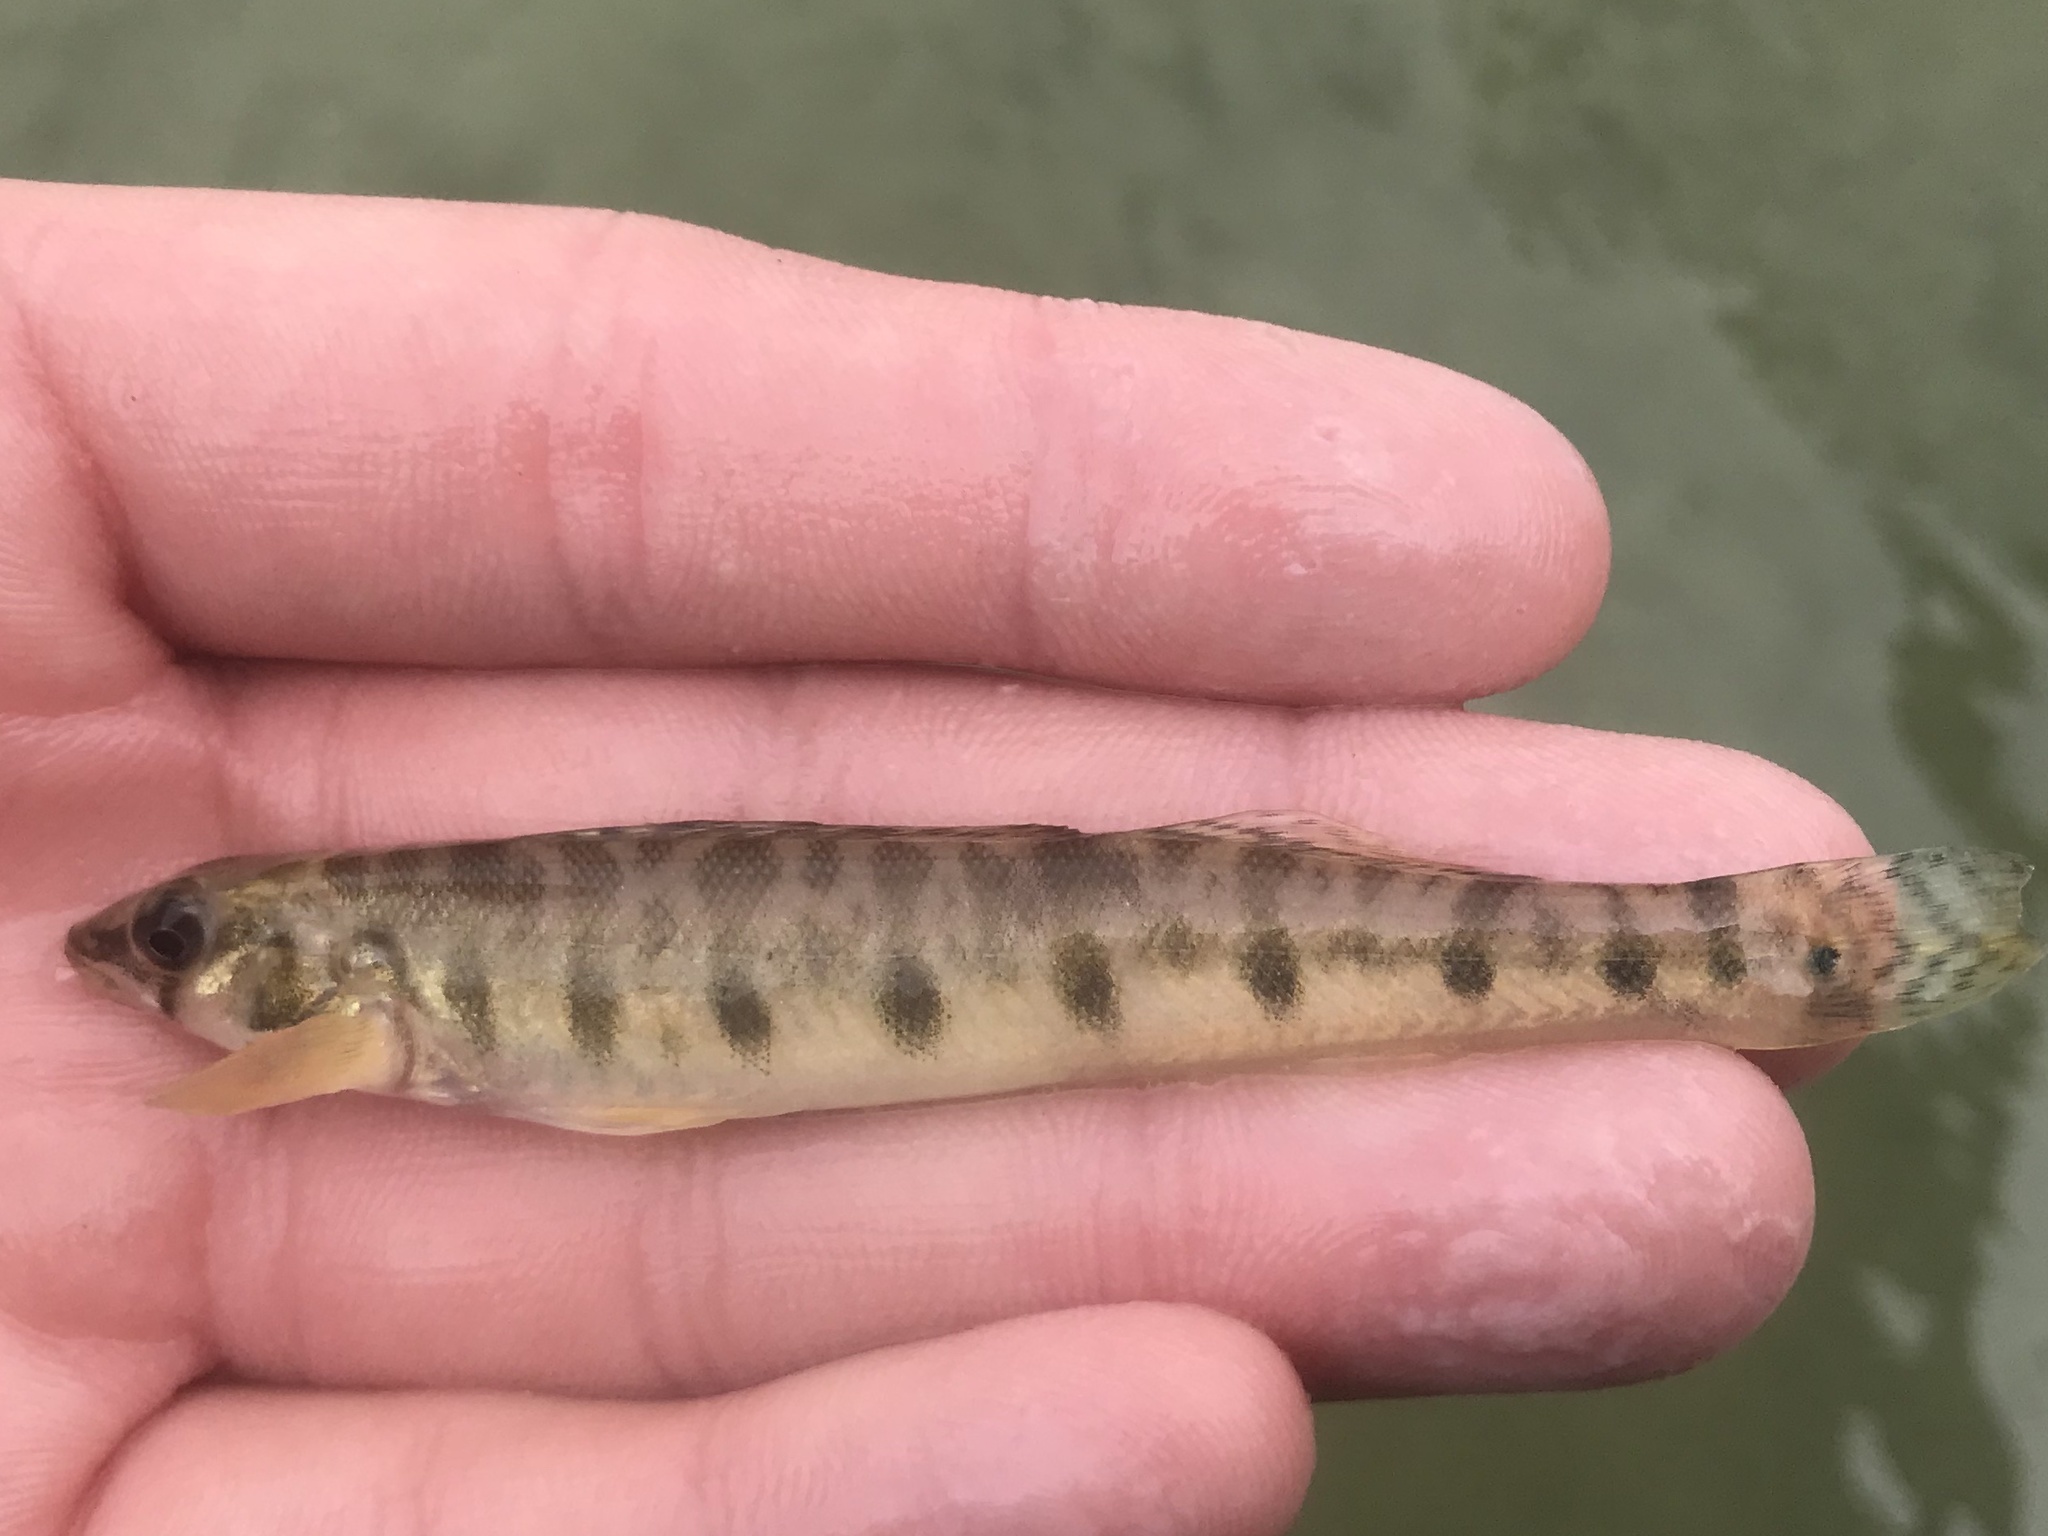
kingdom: Animalia
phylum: Chordata
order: Perciformes
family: Percidae
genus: Percina
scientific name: Percina carbonaria
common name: Texas logperch
